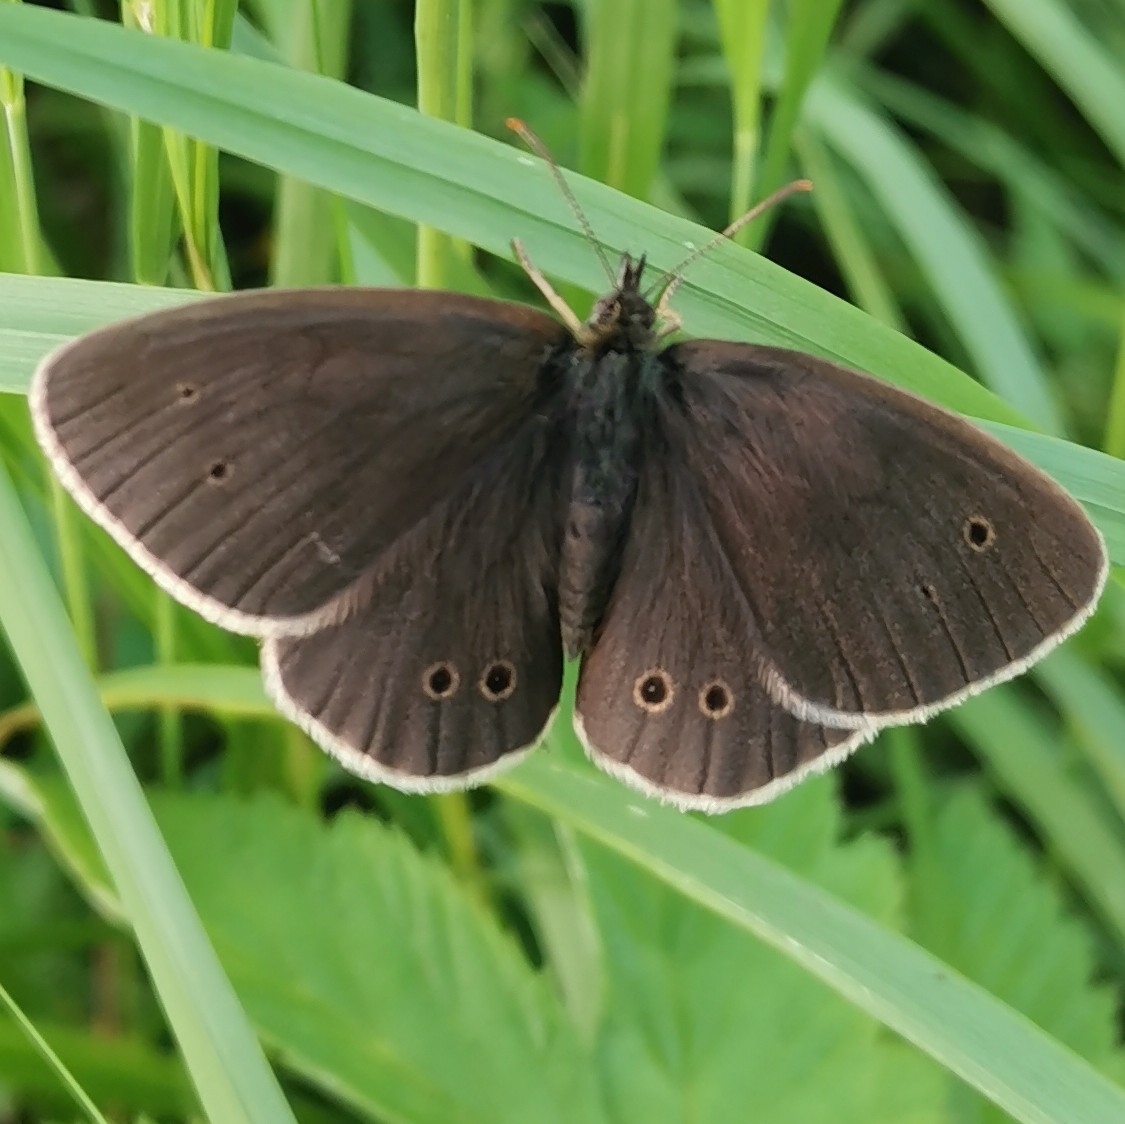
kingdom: Animalia
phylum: Arthropoda
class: Insecta
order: Lepidoptera
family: Nymphalidae
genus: Aphantopus
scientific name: Aphantopus hyperantus
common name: Ringlet
